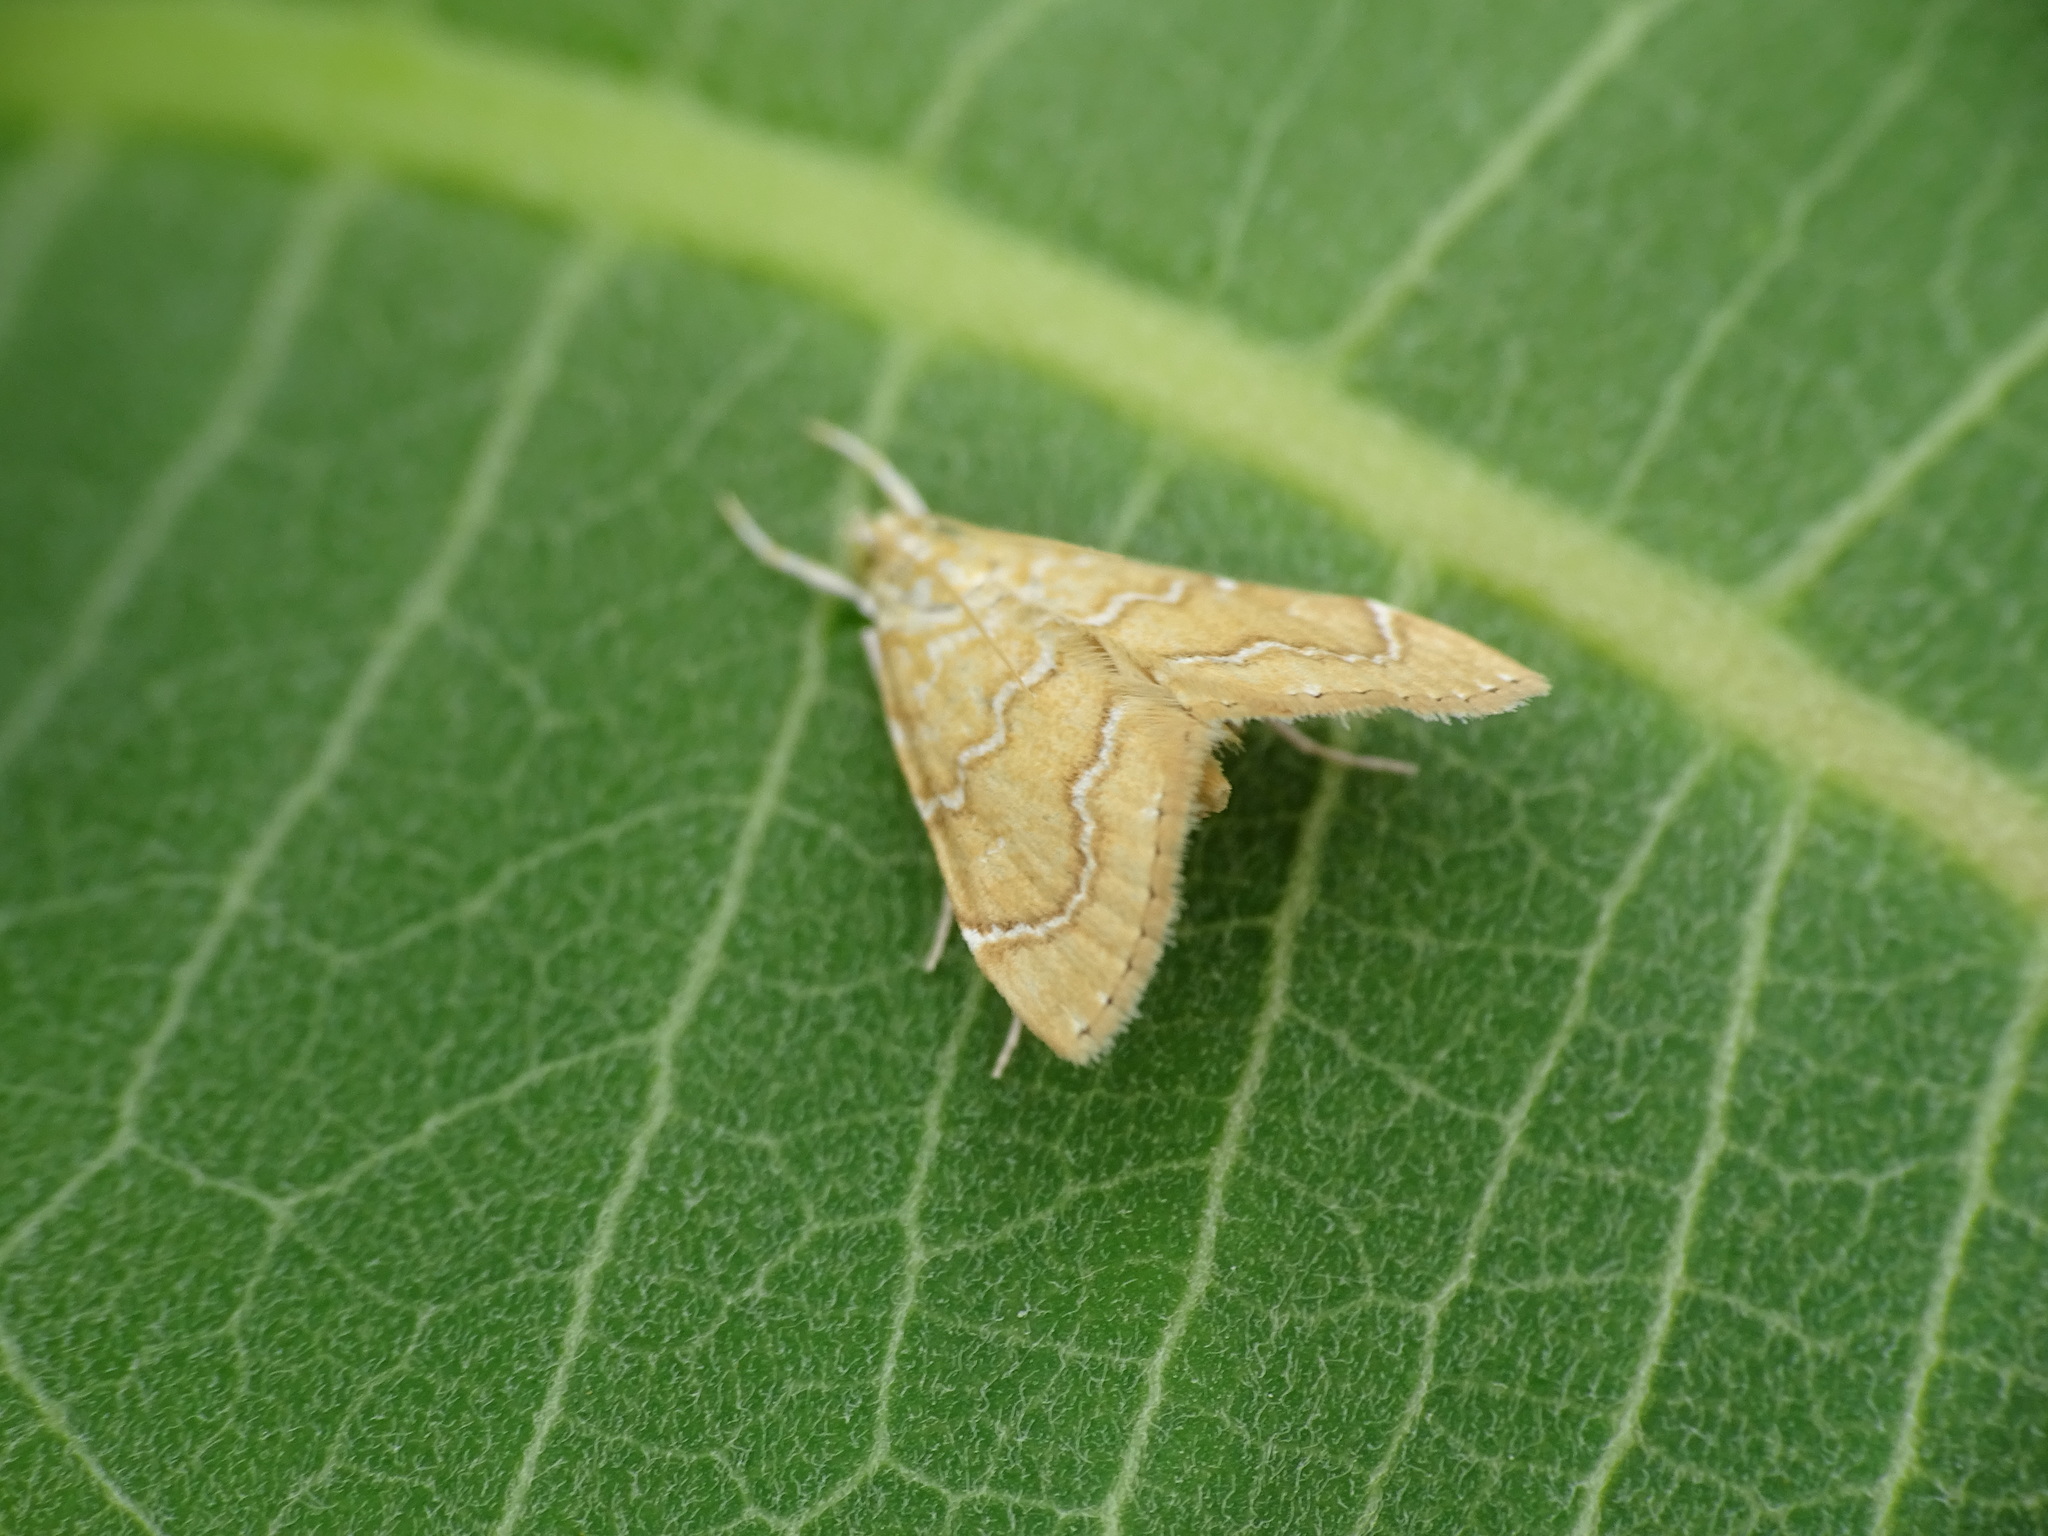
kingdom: Animalia
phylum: Arthropoda
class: Insecta
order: Lepidoptera
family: Crambidae
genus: Glaphyria
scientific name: Glaphyria sesquistrialis
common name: White-roped glaphyria
